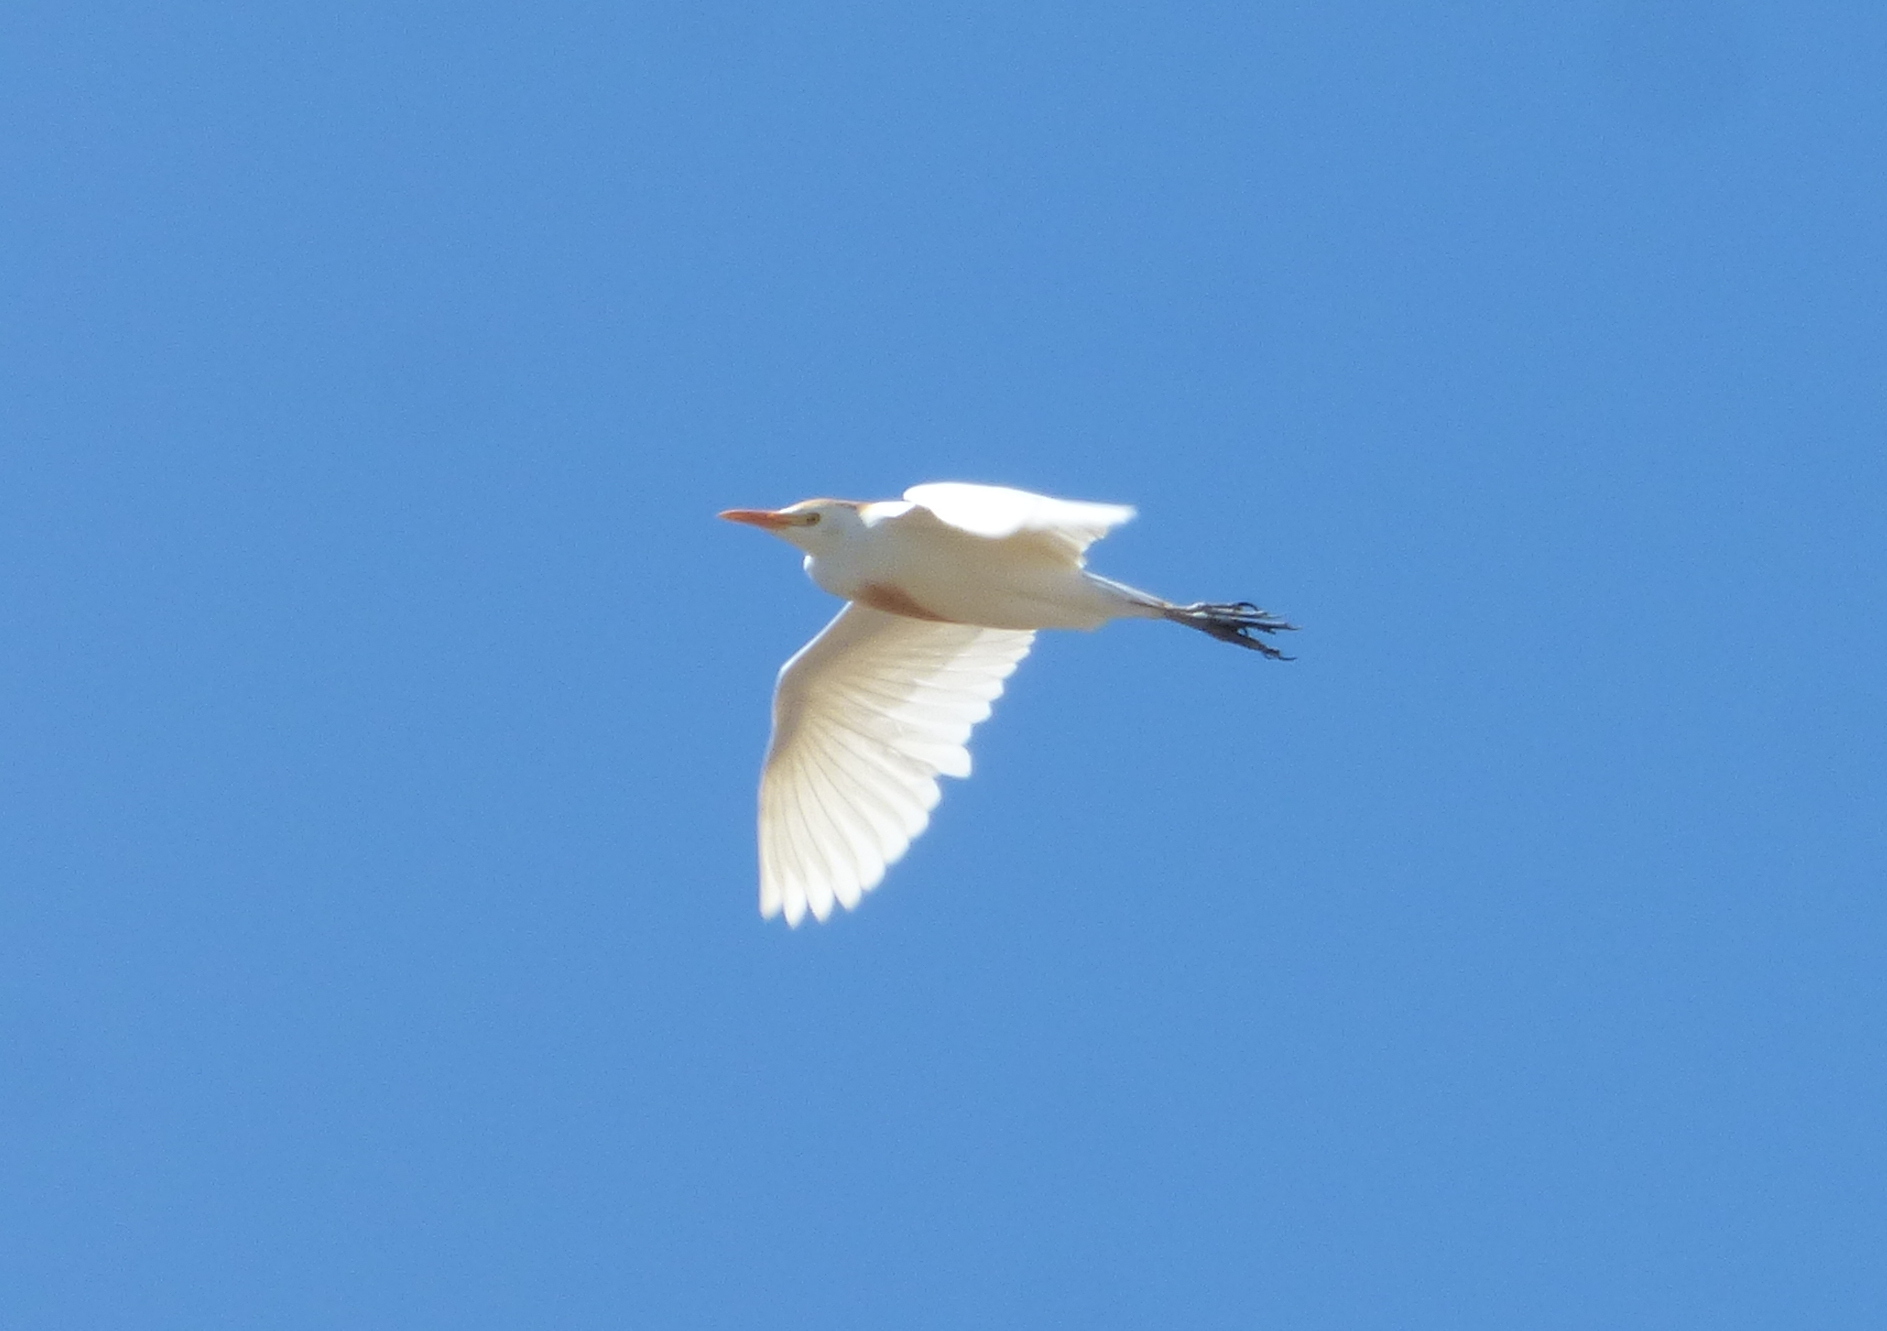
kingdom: Animalia
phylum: Chordata
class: Aves
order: Pelecaniformes
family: Ardeidae
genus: Bubulcus
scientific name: Bubulcus ibis
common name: Cattle egret
